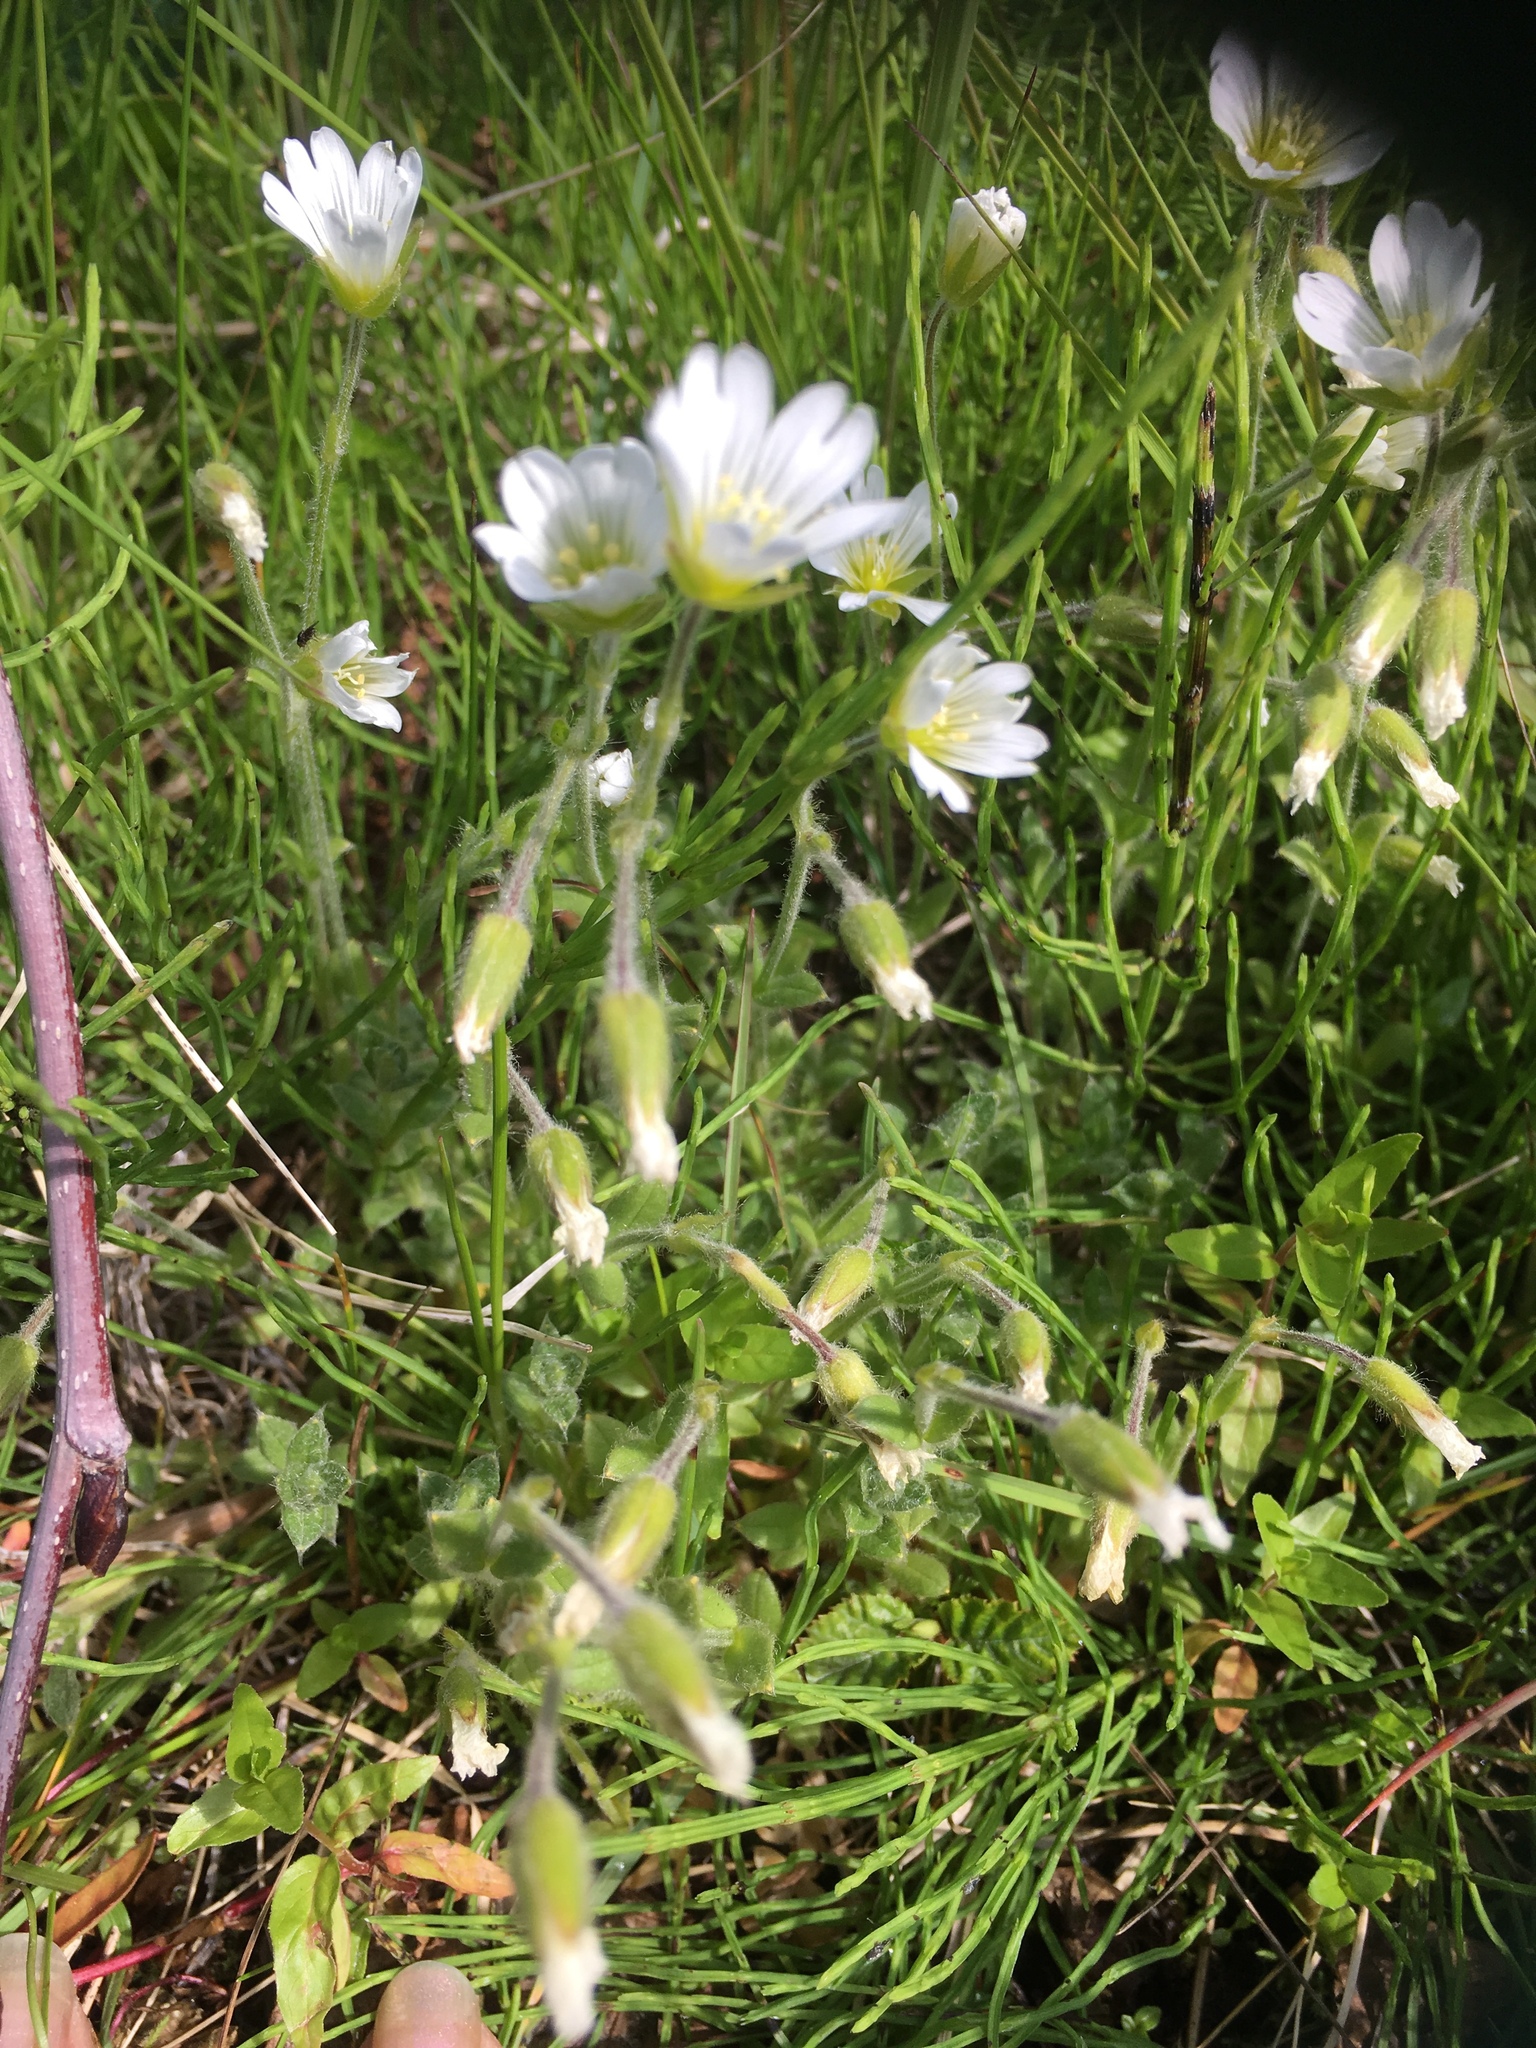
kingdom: Plantae
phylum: Tracheophyta
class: Magnoliopsida
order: Caryophyllales
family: Caryophyllaceae
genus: Cerastium
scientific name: Cerastium alpinum
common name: Alpine mouse-ear
